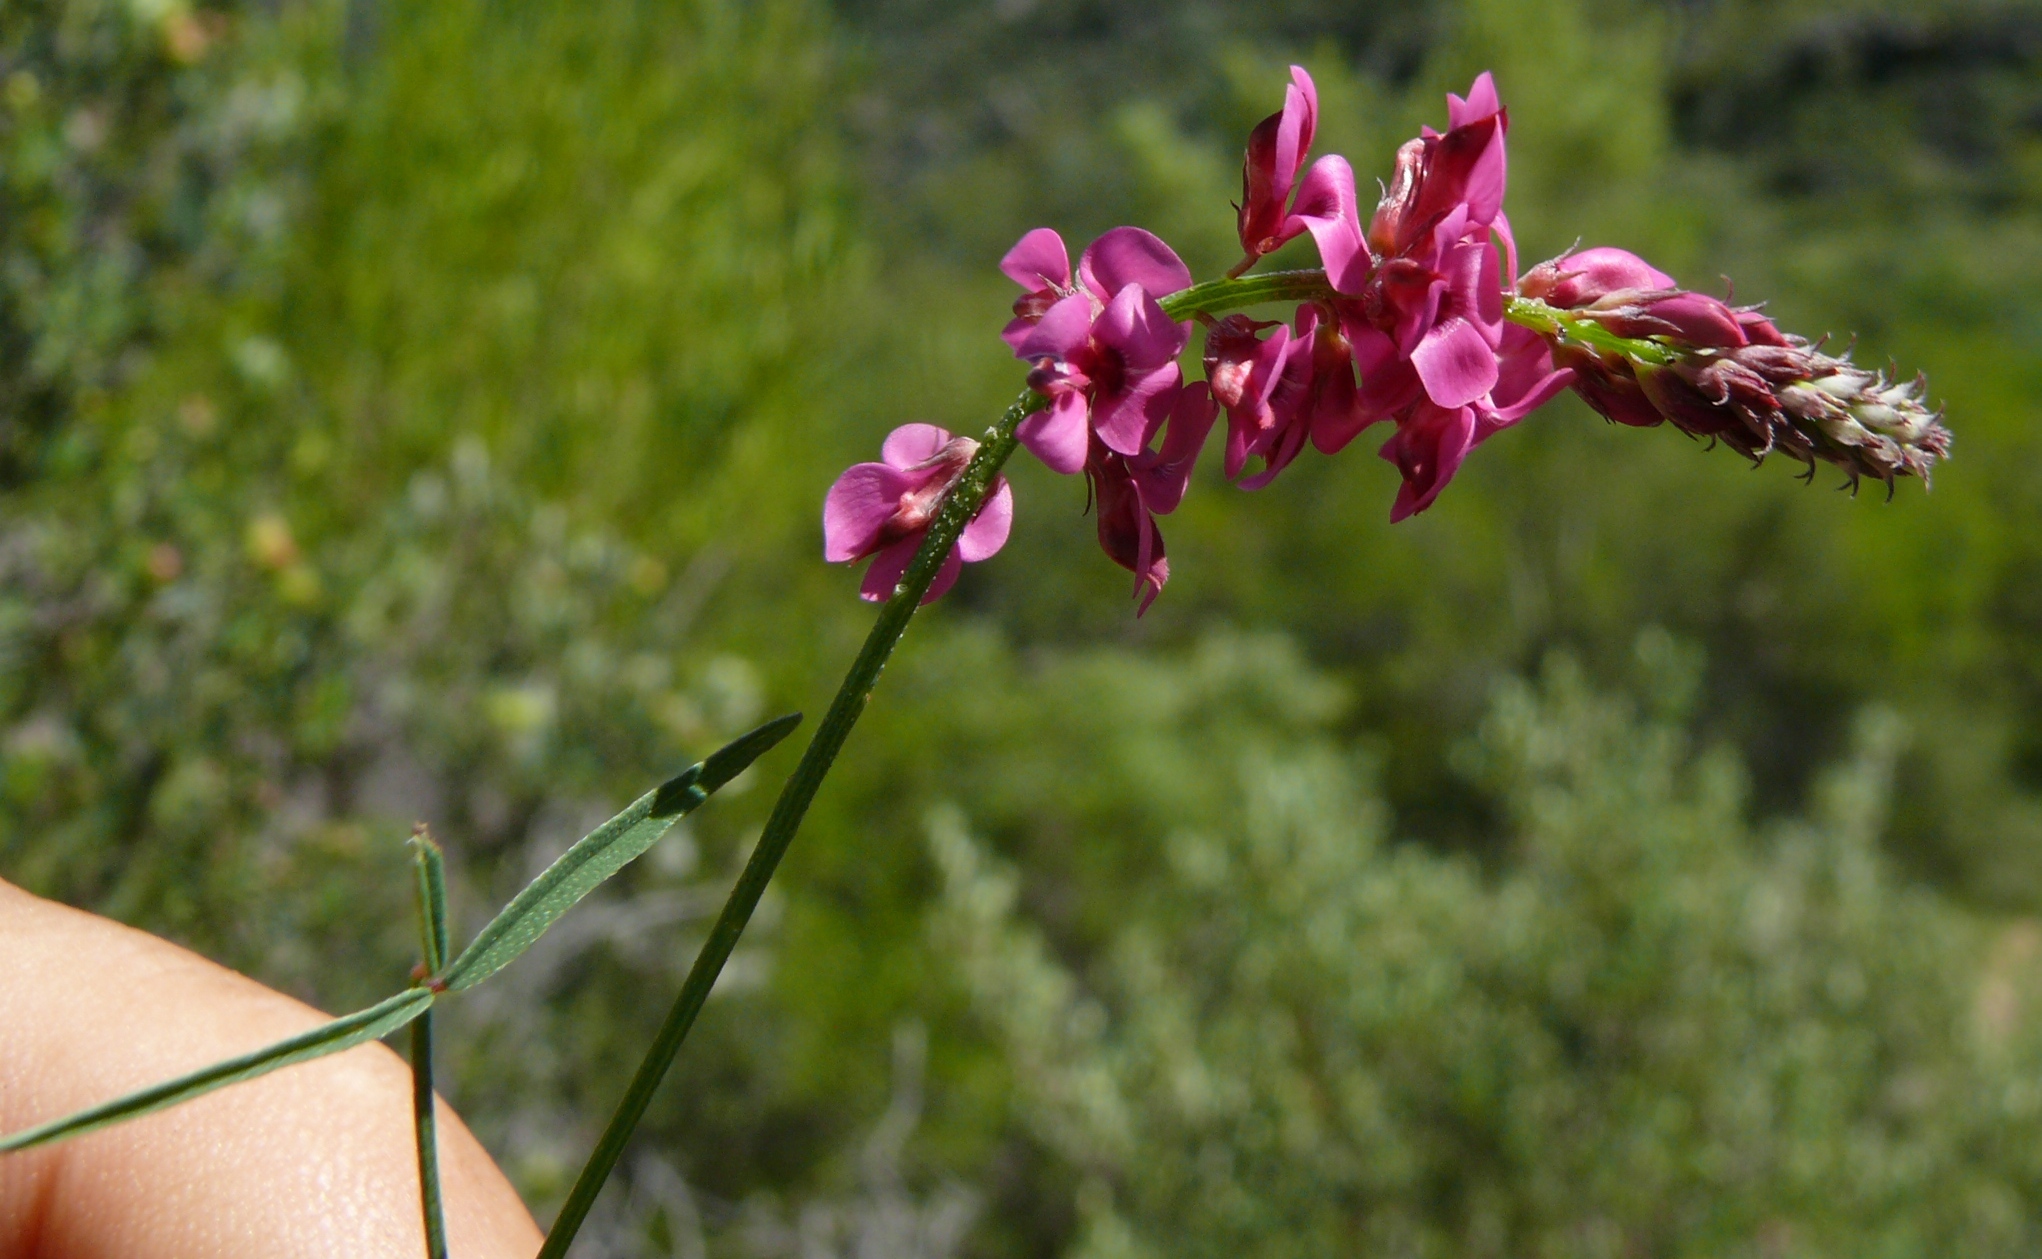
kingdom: Plantae
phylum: Tracheophyta
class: Magnoliopsida
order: Fabales
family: Fabaceae
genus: Indigofera
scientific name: Indigofera venusta
